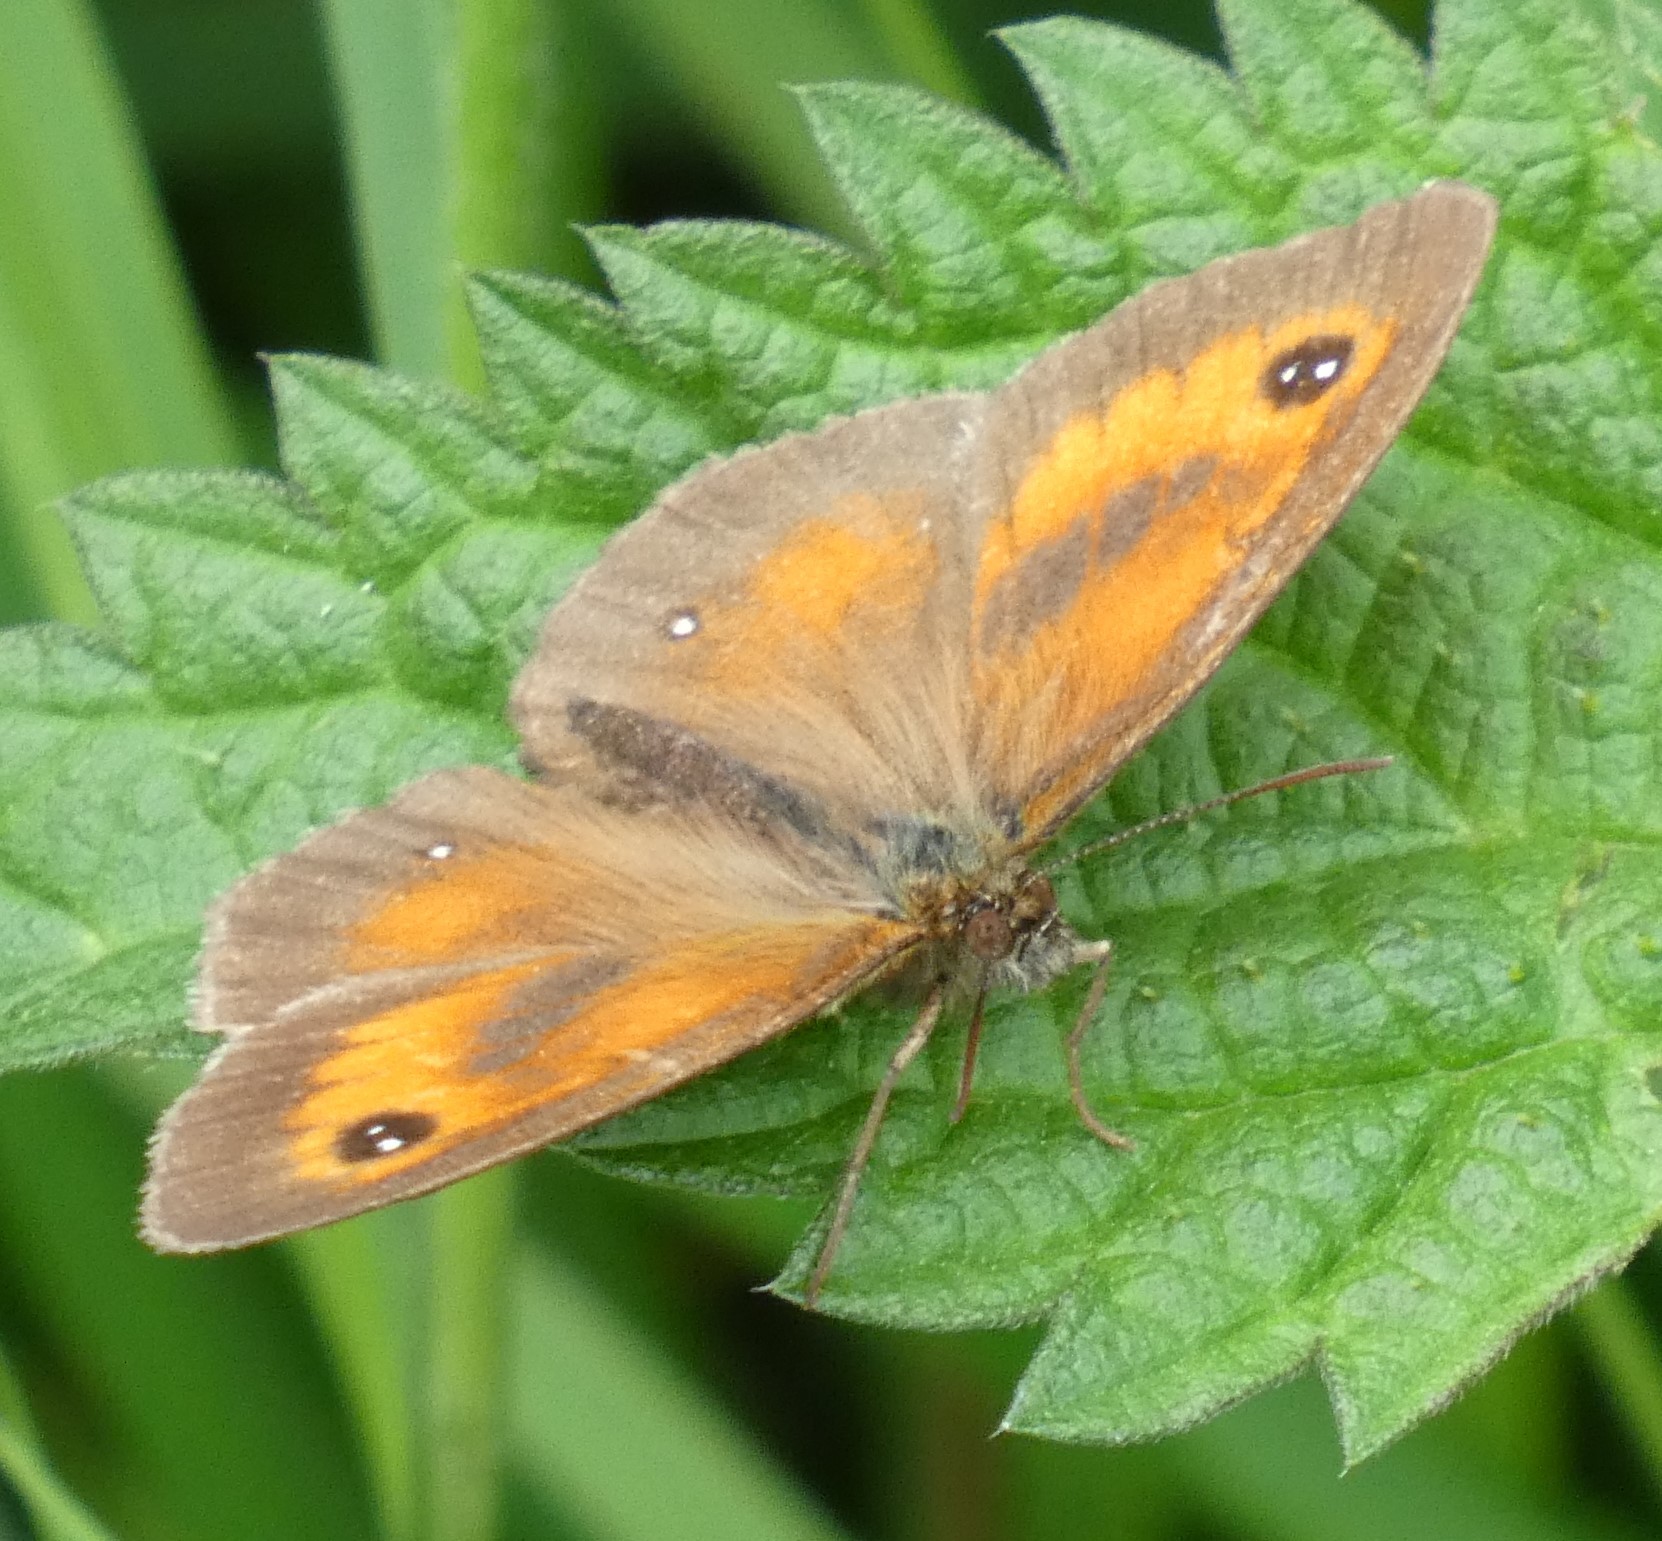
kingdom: Animalia
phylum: Arthropoda
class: Insecta
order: Lepidoptera
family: Nymphalidae
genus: Pyronia
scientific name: Pyronia tithonus
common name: Gatekeeper
